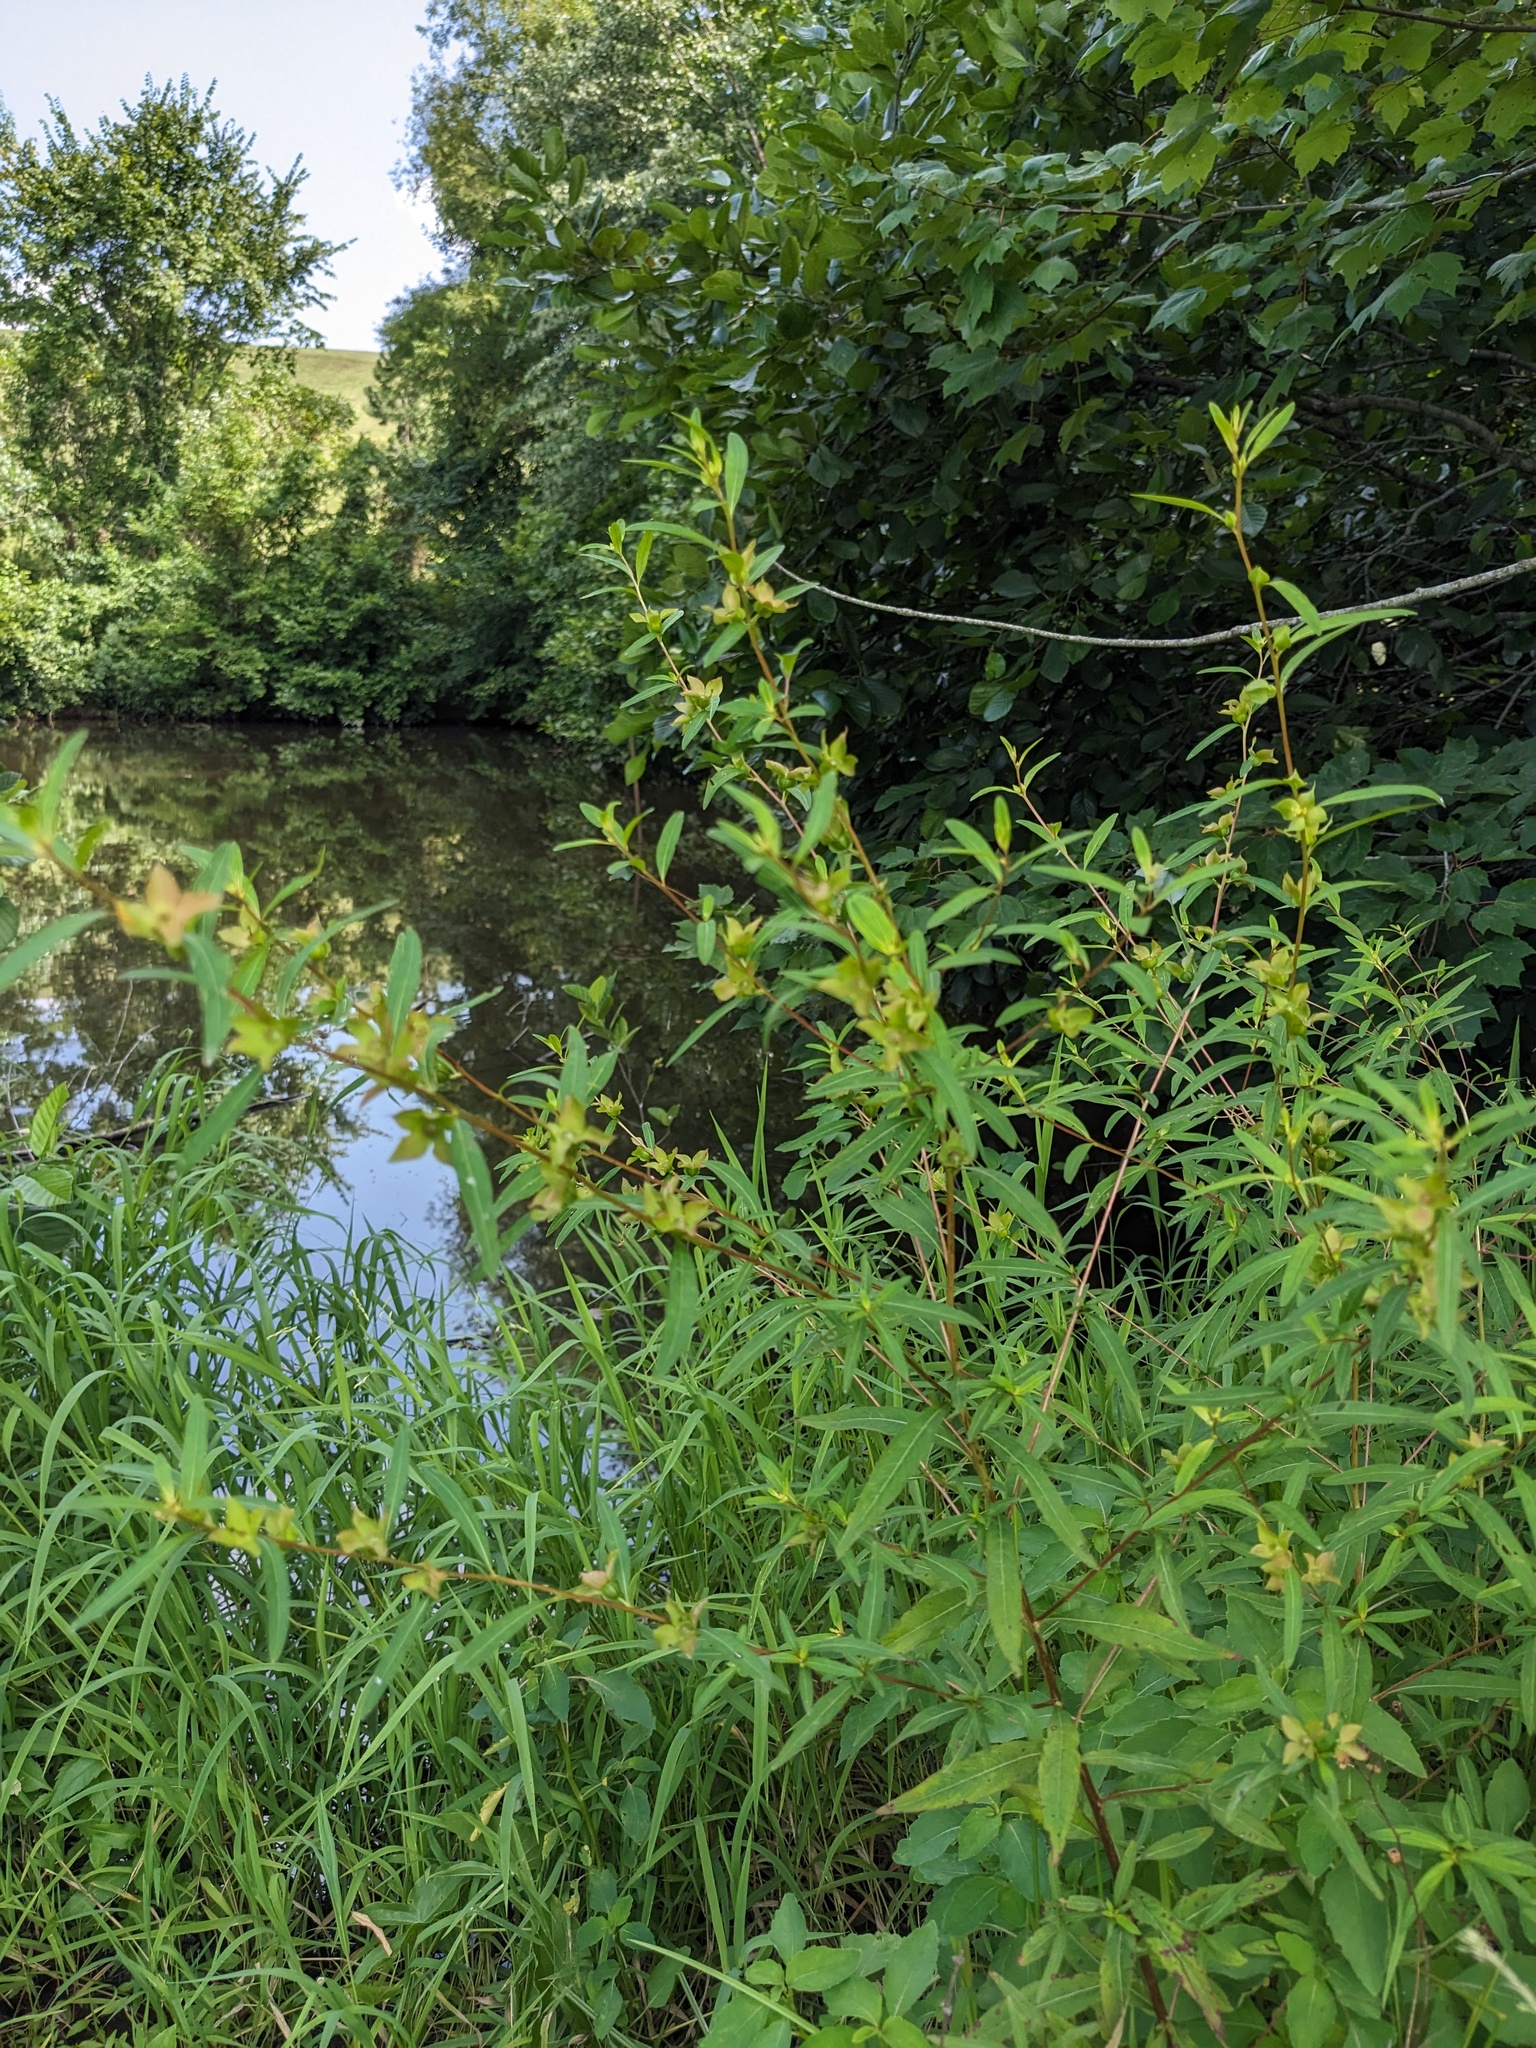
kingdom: Plantae
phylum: Tracheophyta
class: Magnoliopsida
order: Myrtales
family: Onagraceae
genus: Ludwigia
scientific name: Ludwigia alternifolia
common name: Rattlebox
